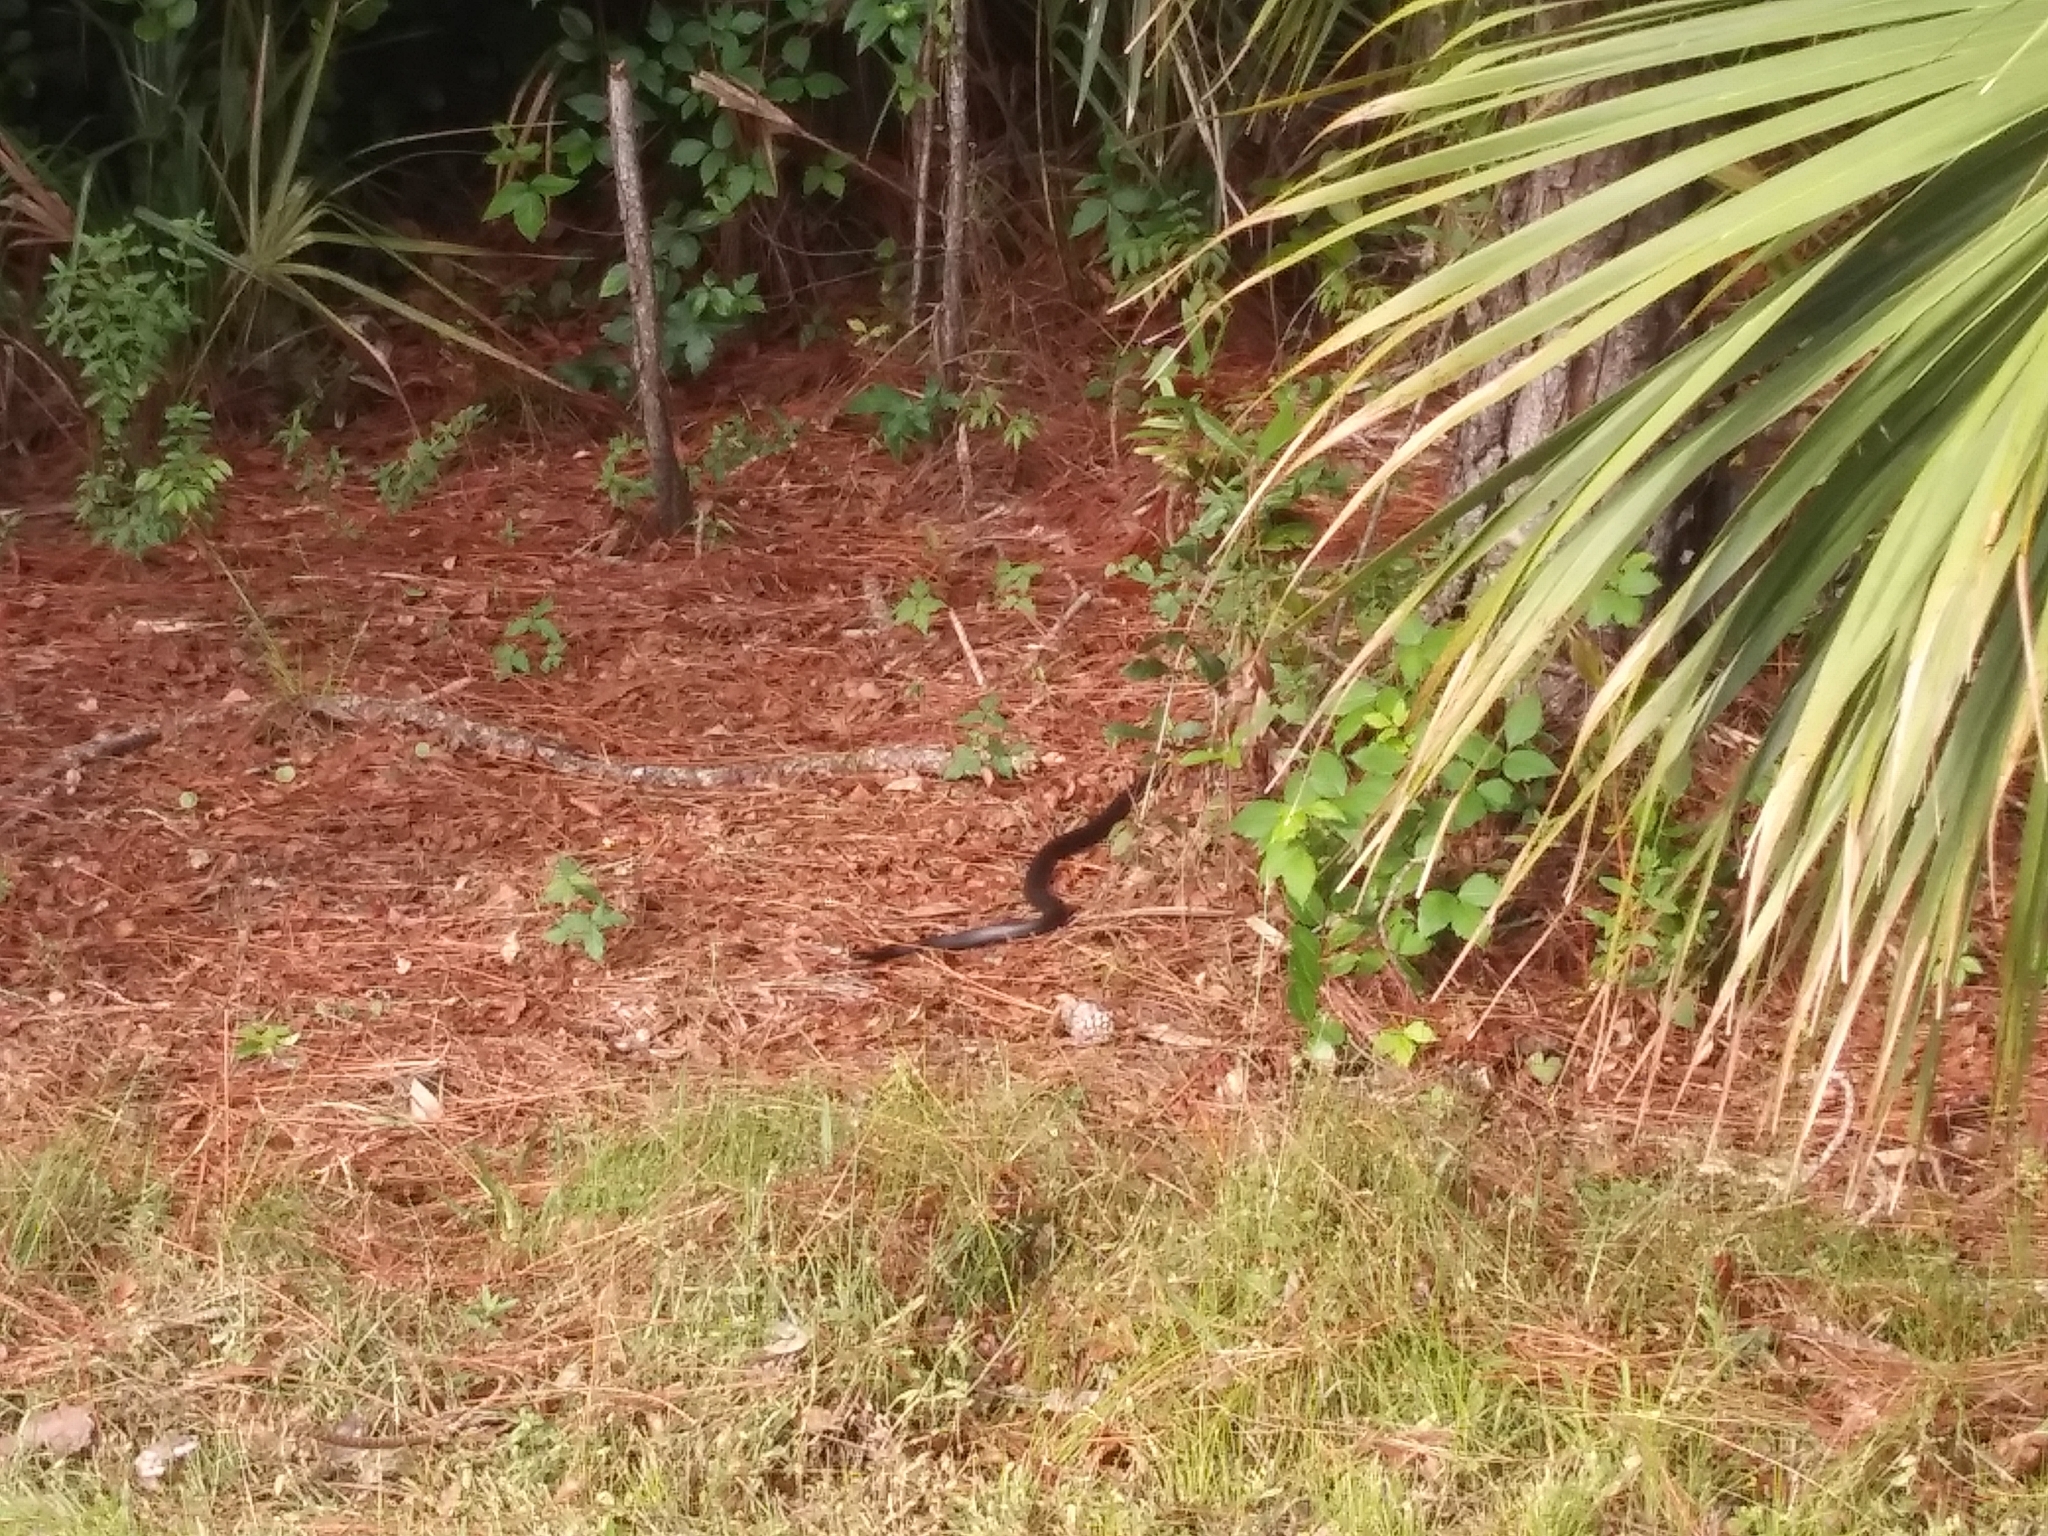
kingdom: Animalia
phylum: Chordata
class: Squamata
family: Colubridae
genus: Coluber
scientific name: Coluber constrictor
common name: Eastern racer
